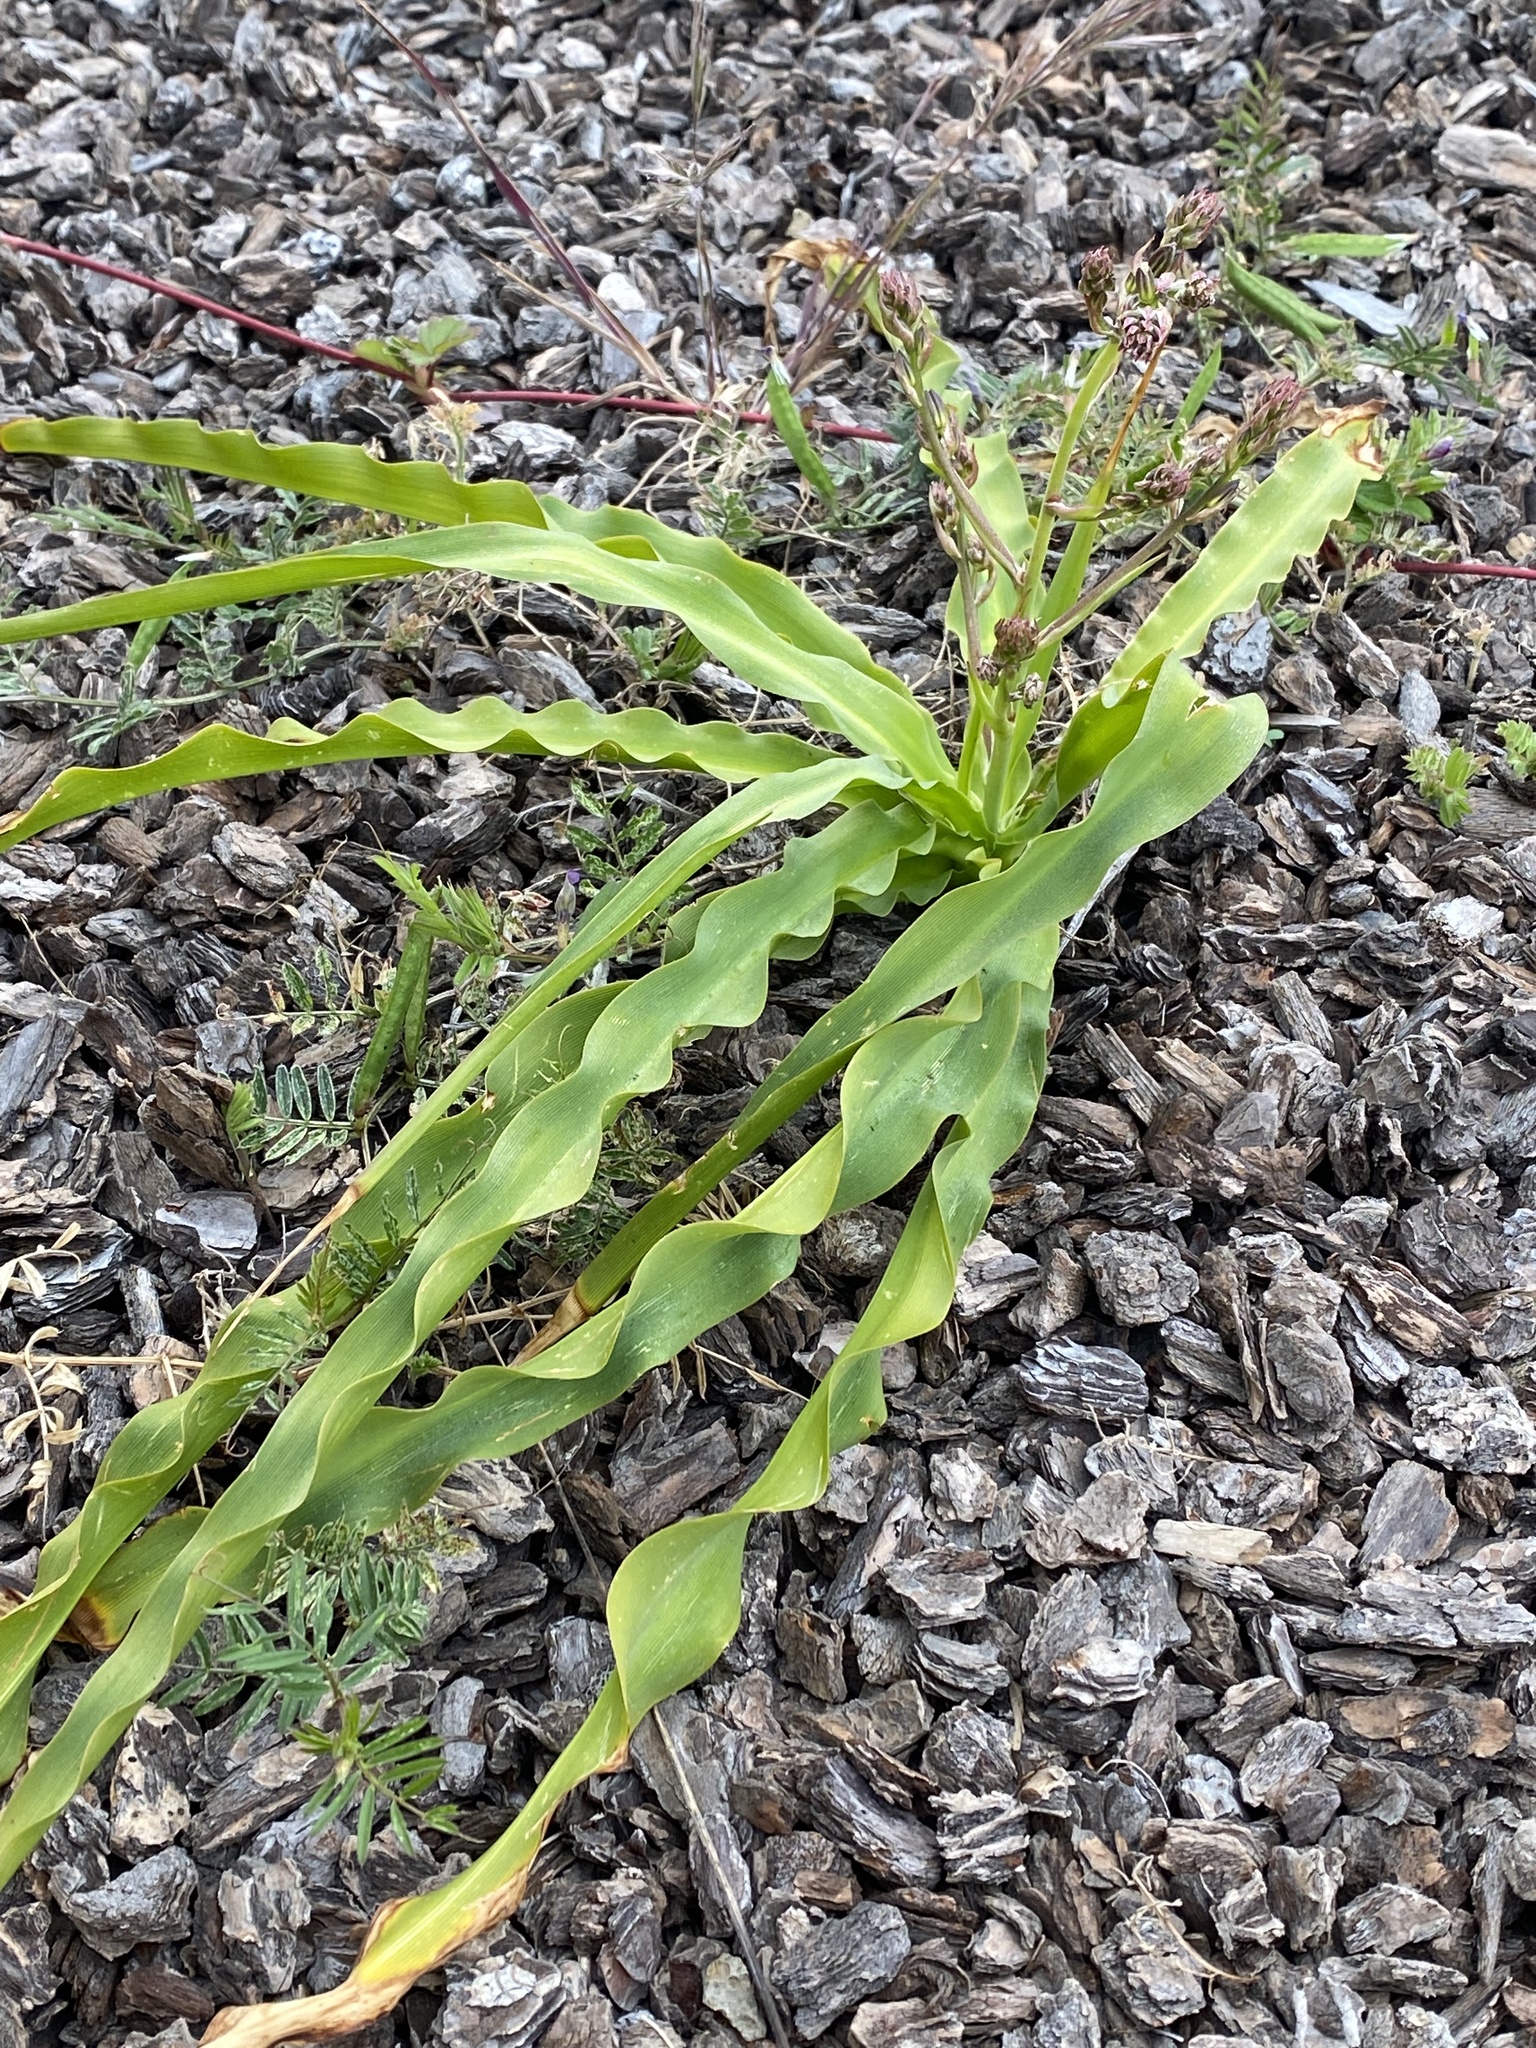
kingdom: Plantae
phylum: Tracheophyta
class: Liliopsida
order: Asparagales
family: Asparagaceae
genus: Chlorogalum
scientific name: Chlorogalum pomeridianum
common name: Amole
